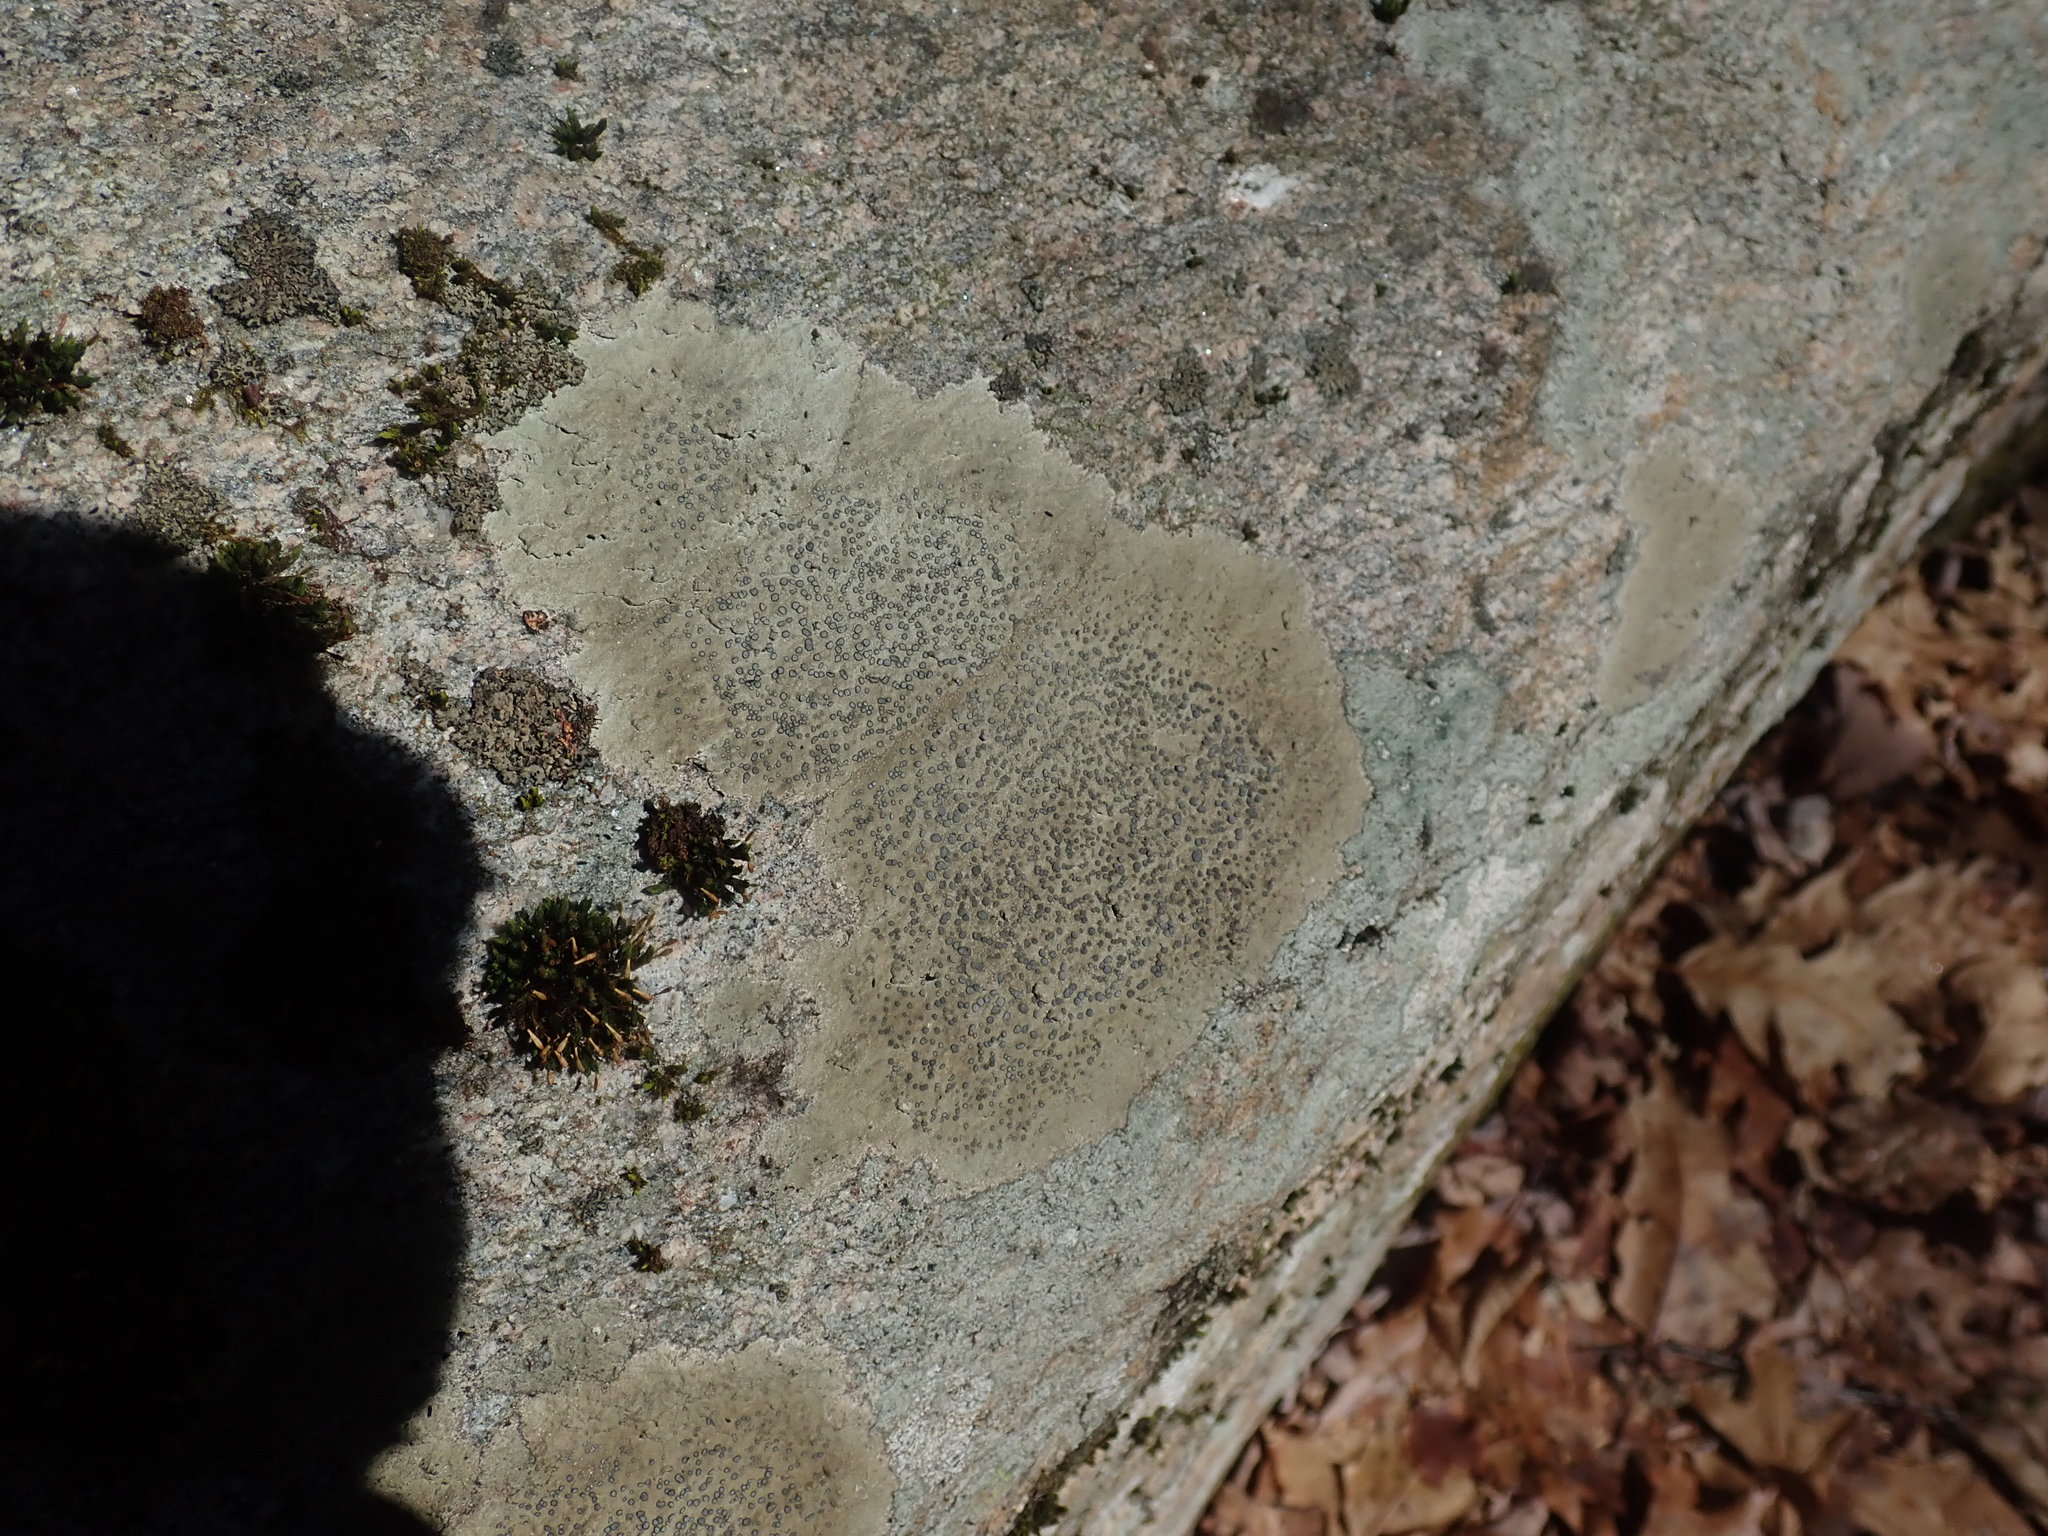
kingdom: Fungi
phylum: Ascomycota
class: Lecanoromycetes
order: Lecideales
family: Lecideaceae
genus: Porpidia
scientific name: Porpidia albocaerulescens
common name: Smokey-eyed boulder lichen
